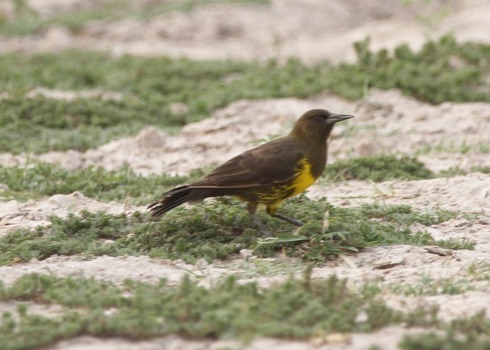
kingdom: Animalia
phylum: Chordata
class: Aves
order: Passeriformes
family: Icteridae
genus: Pseudoleistes
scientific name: Pseudoleistes virescens
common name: Brown-and-yellow marshbird
